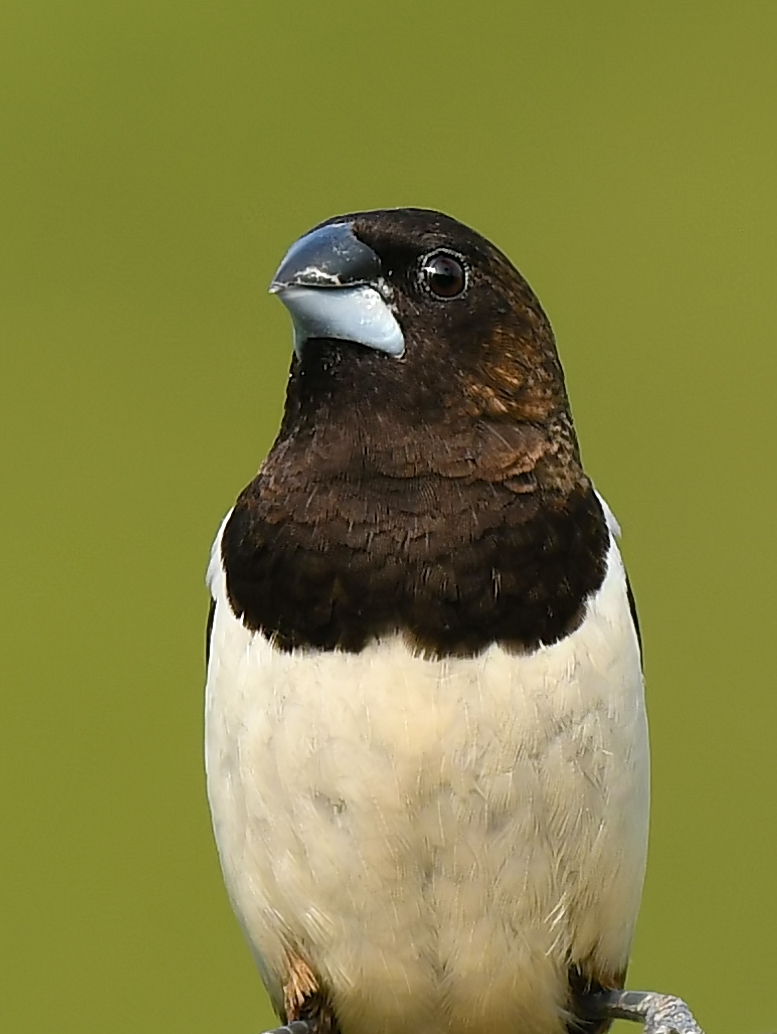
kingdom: Animalia
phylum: Chordata
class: Aves
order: Passeriformes
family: Estrildidae
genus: Lonchura
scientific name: Lonchura striata
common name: White-rumped munia
